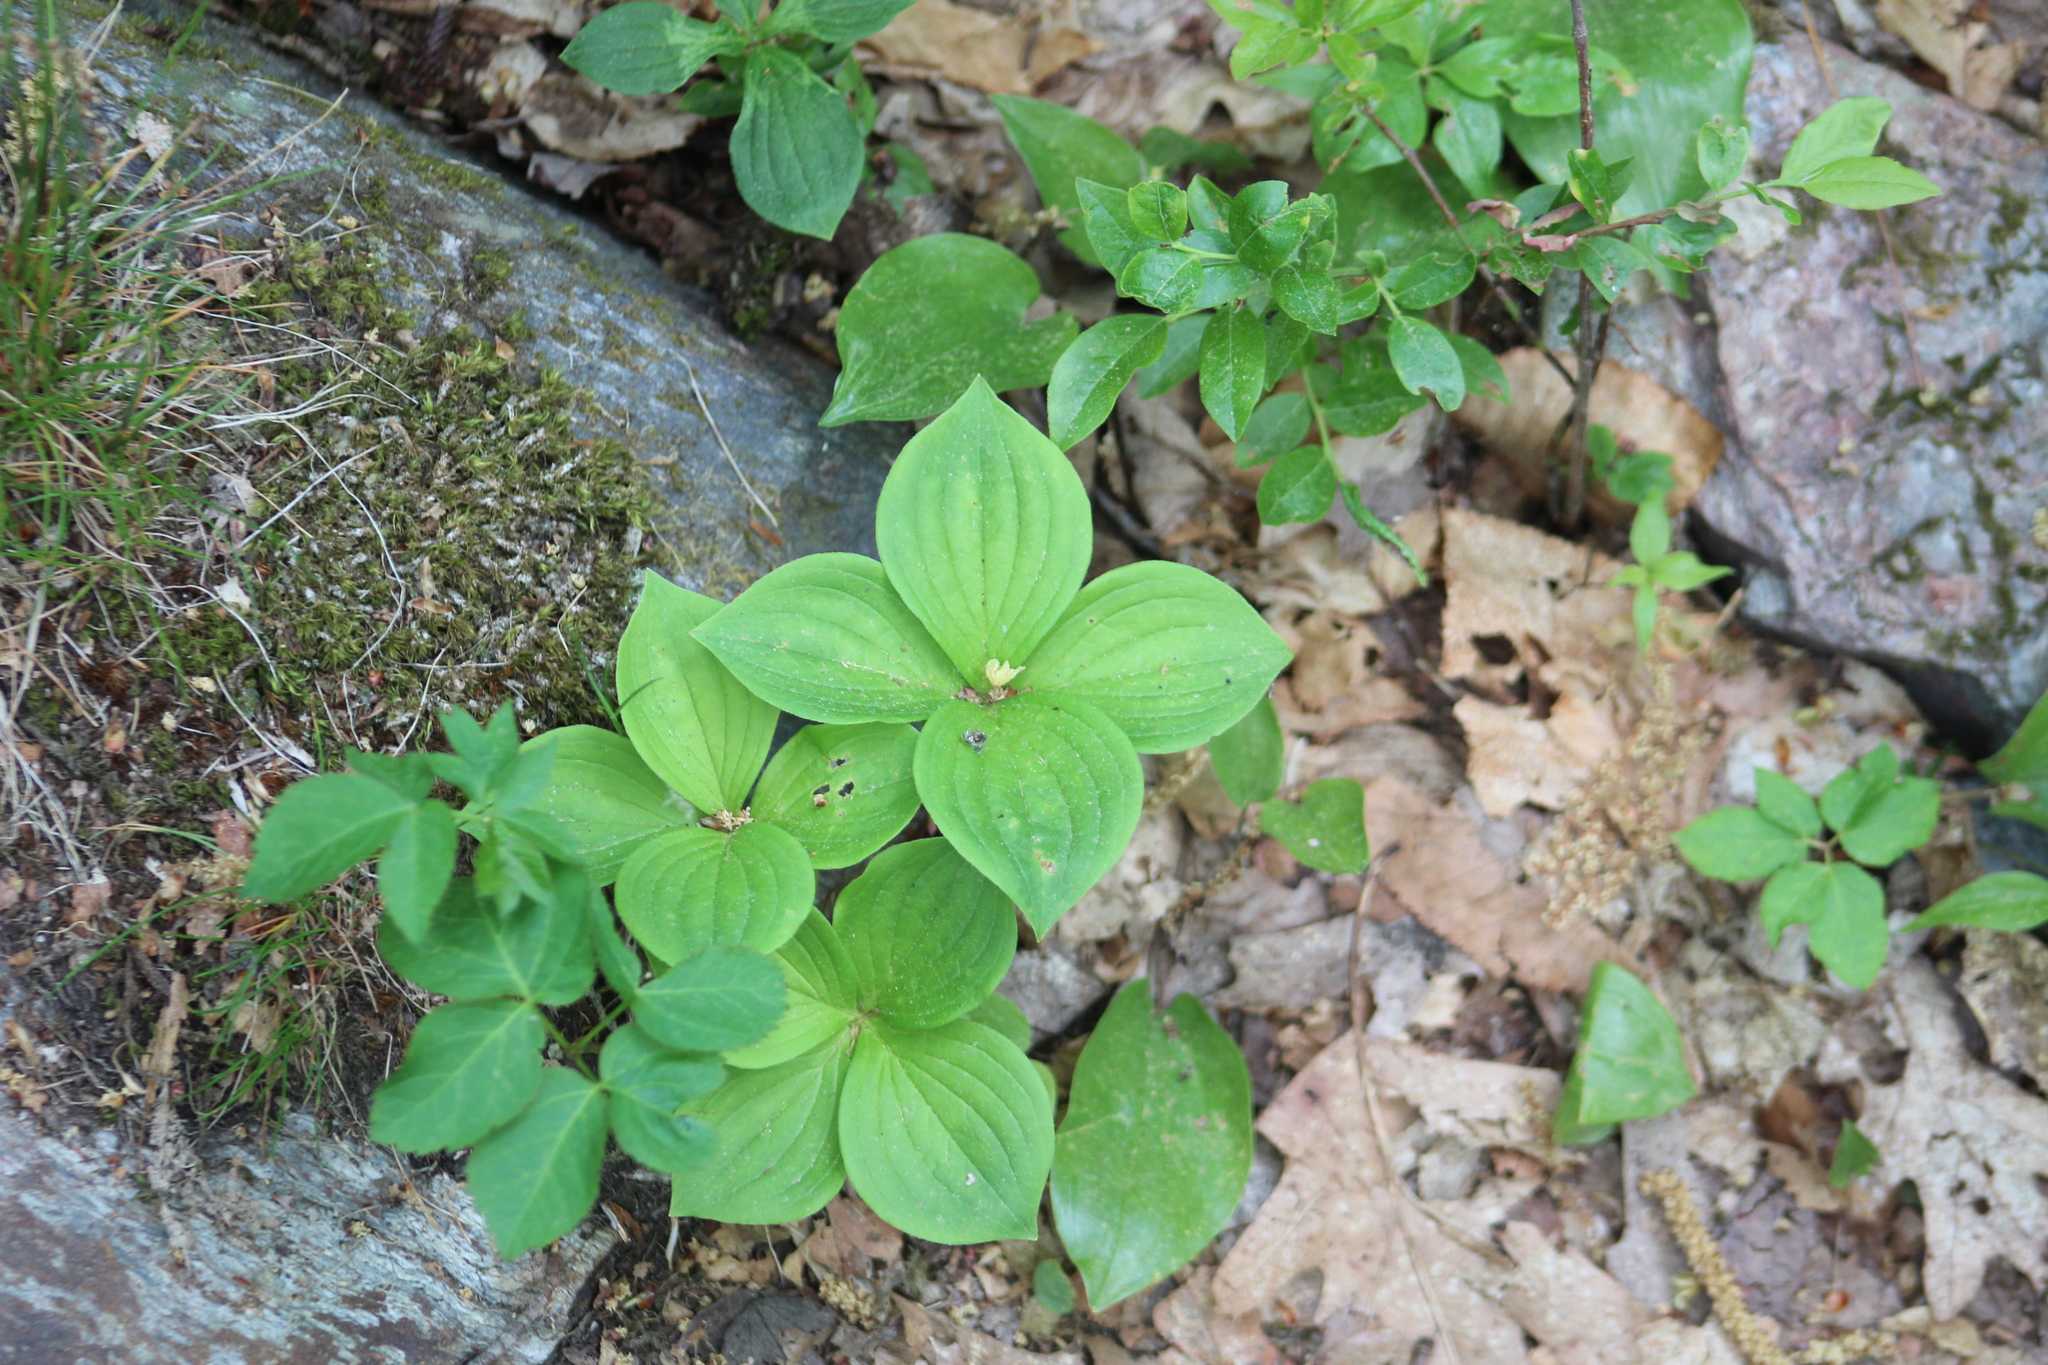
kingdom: Plantae
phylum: Tracheophyta
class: Magnoliopsida
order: Cornales
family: Cornaceae
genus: Cornus
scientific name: Cornus canadensis
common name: Creeping dogwood
